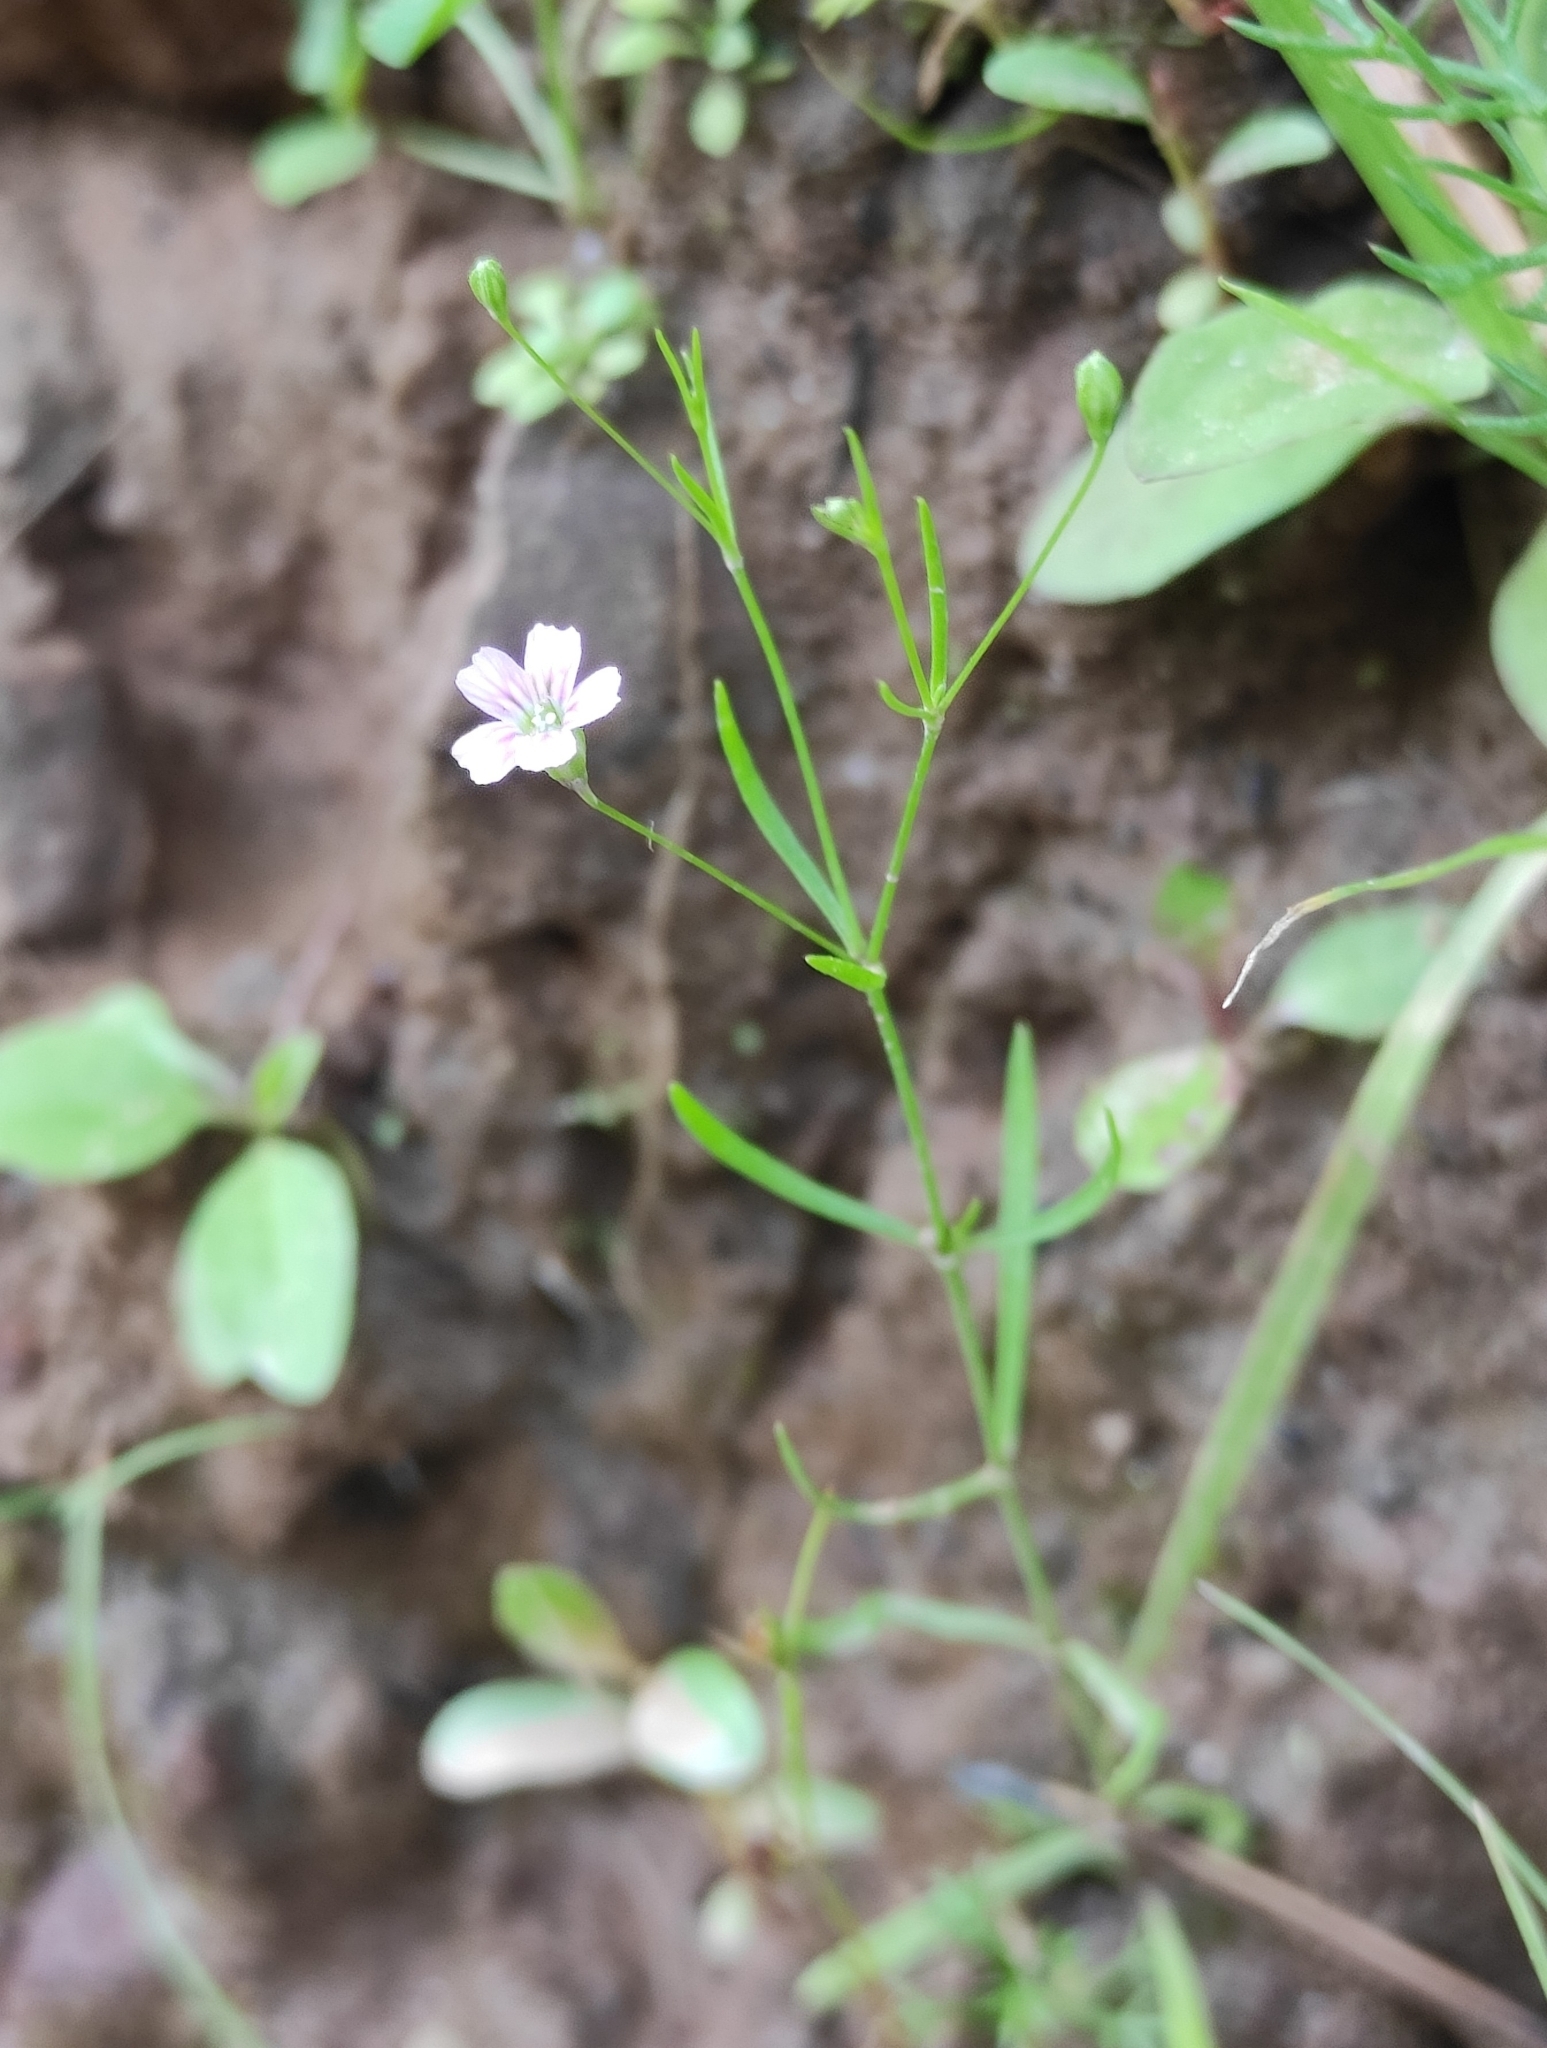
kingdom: Plantae
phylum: Tracheophyta
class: Magnoliopsida
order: Caryophyllales
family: Caryophyllaceae
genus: Psammophiliella
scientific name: Psammophiliella muralis
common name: Cushion baby's-breath
